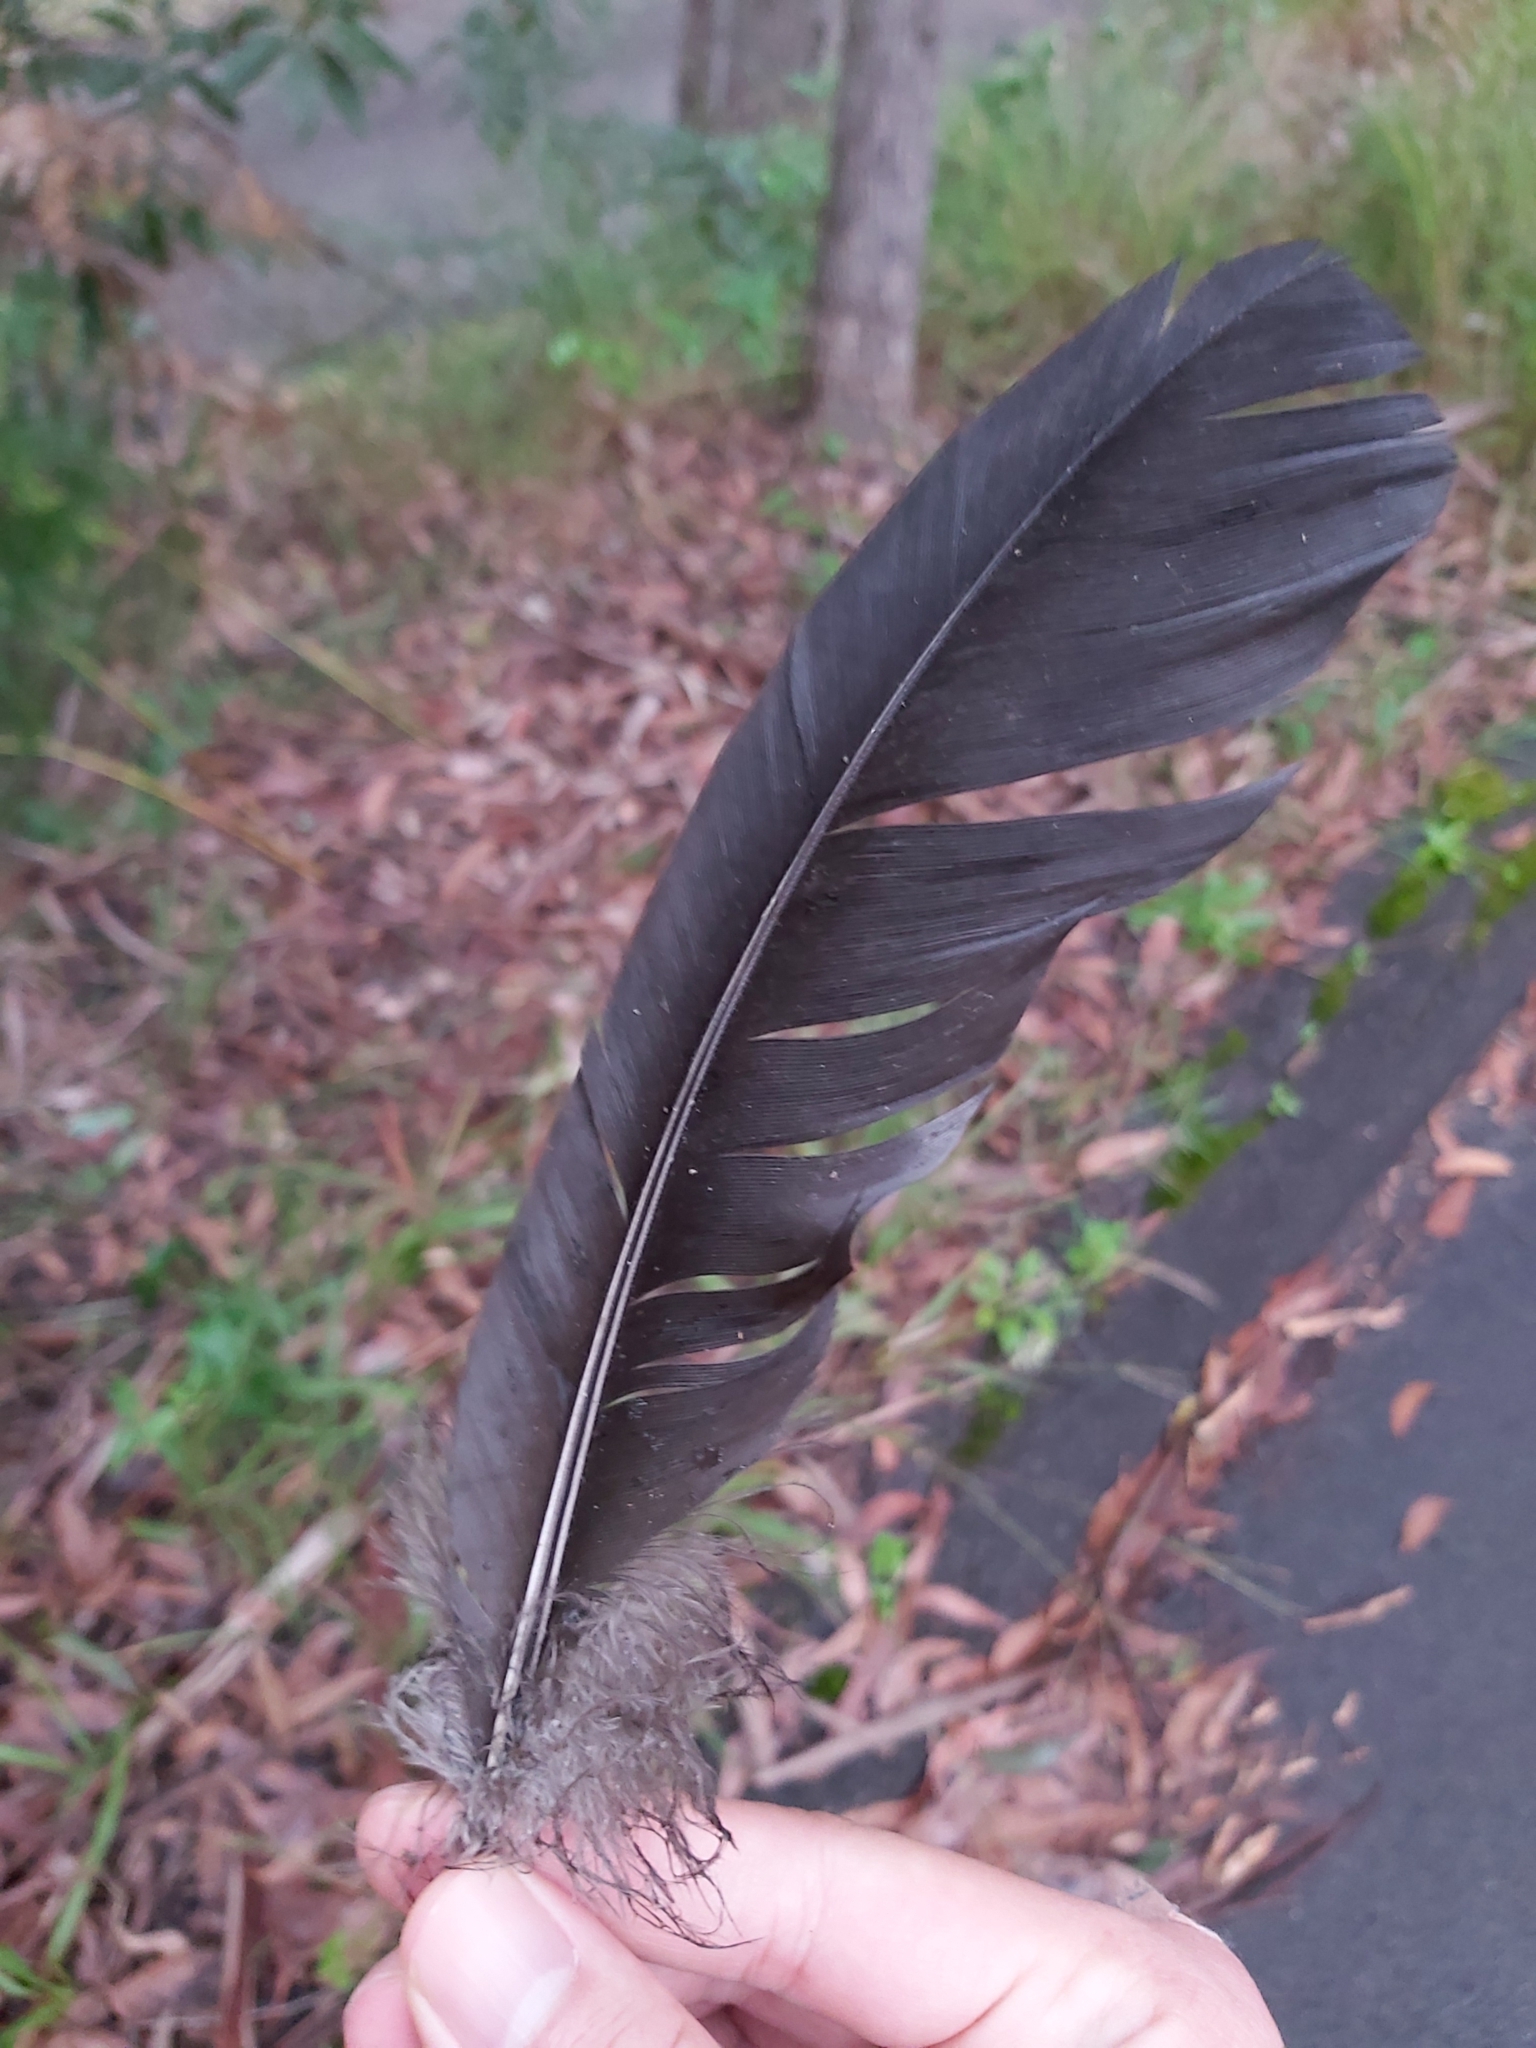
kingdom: Animalia
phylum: Chordata
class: Aves
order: Galliformes
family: Megapodiidae
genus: Alectura
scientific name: Alectura lathami
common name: Australian brushturkey
